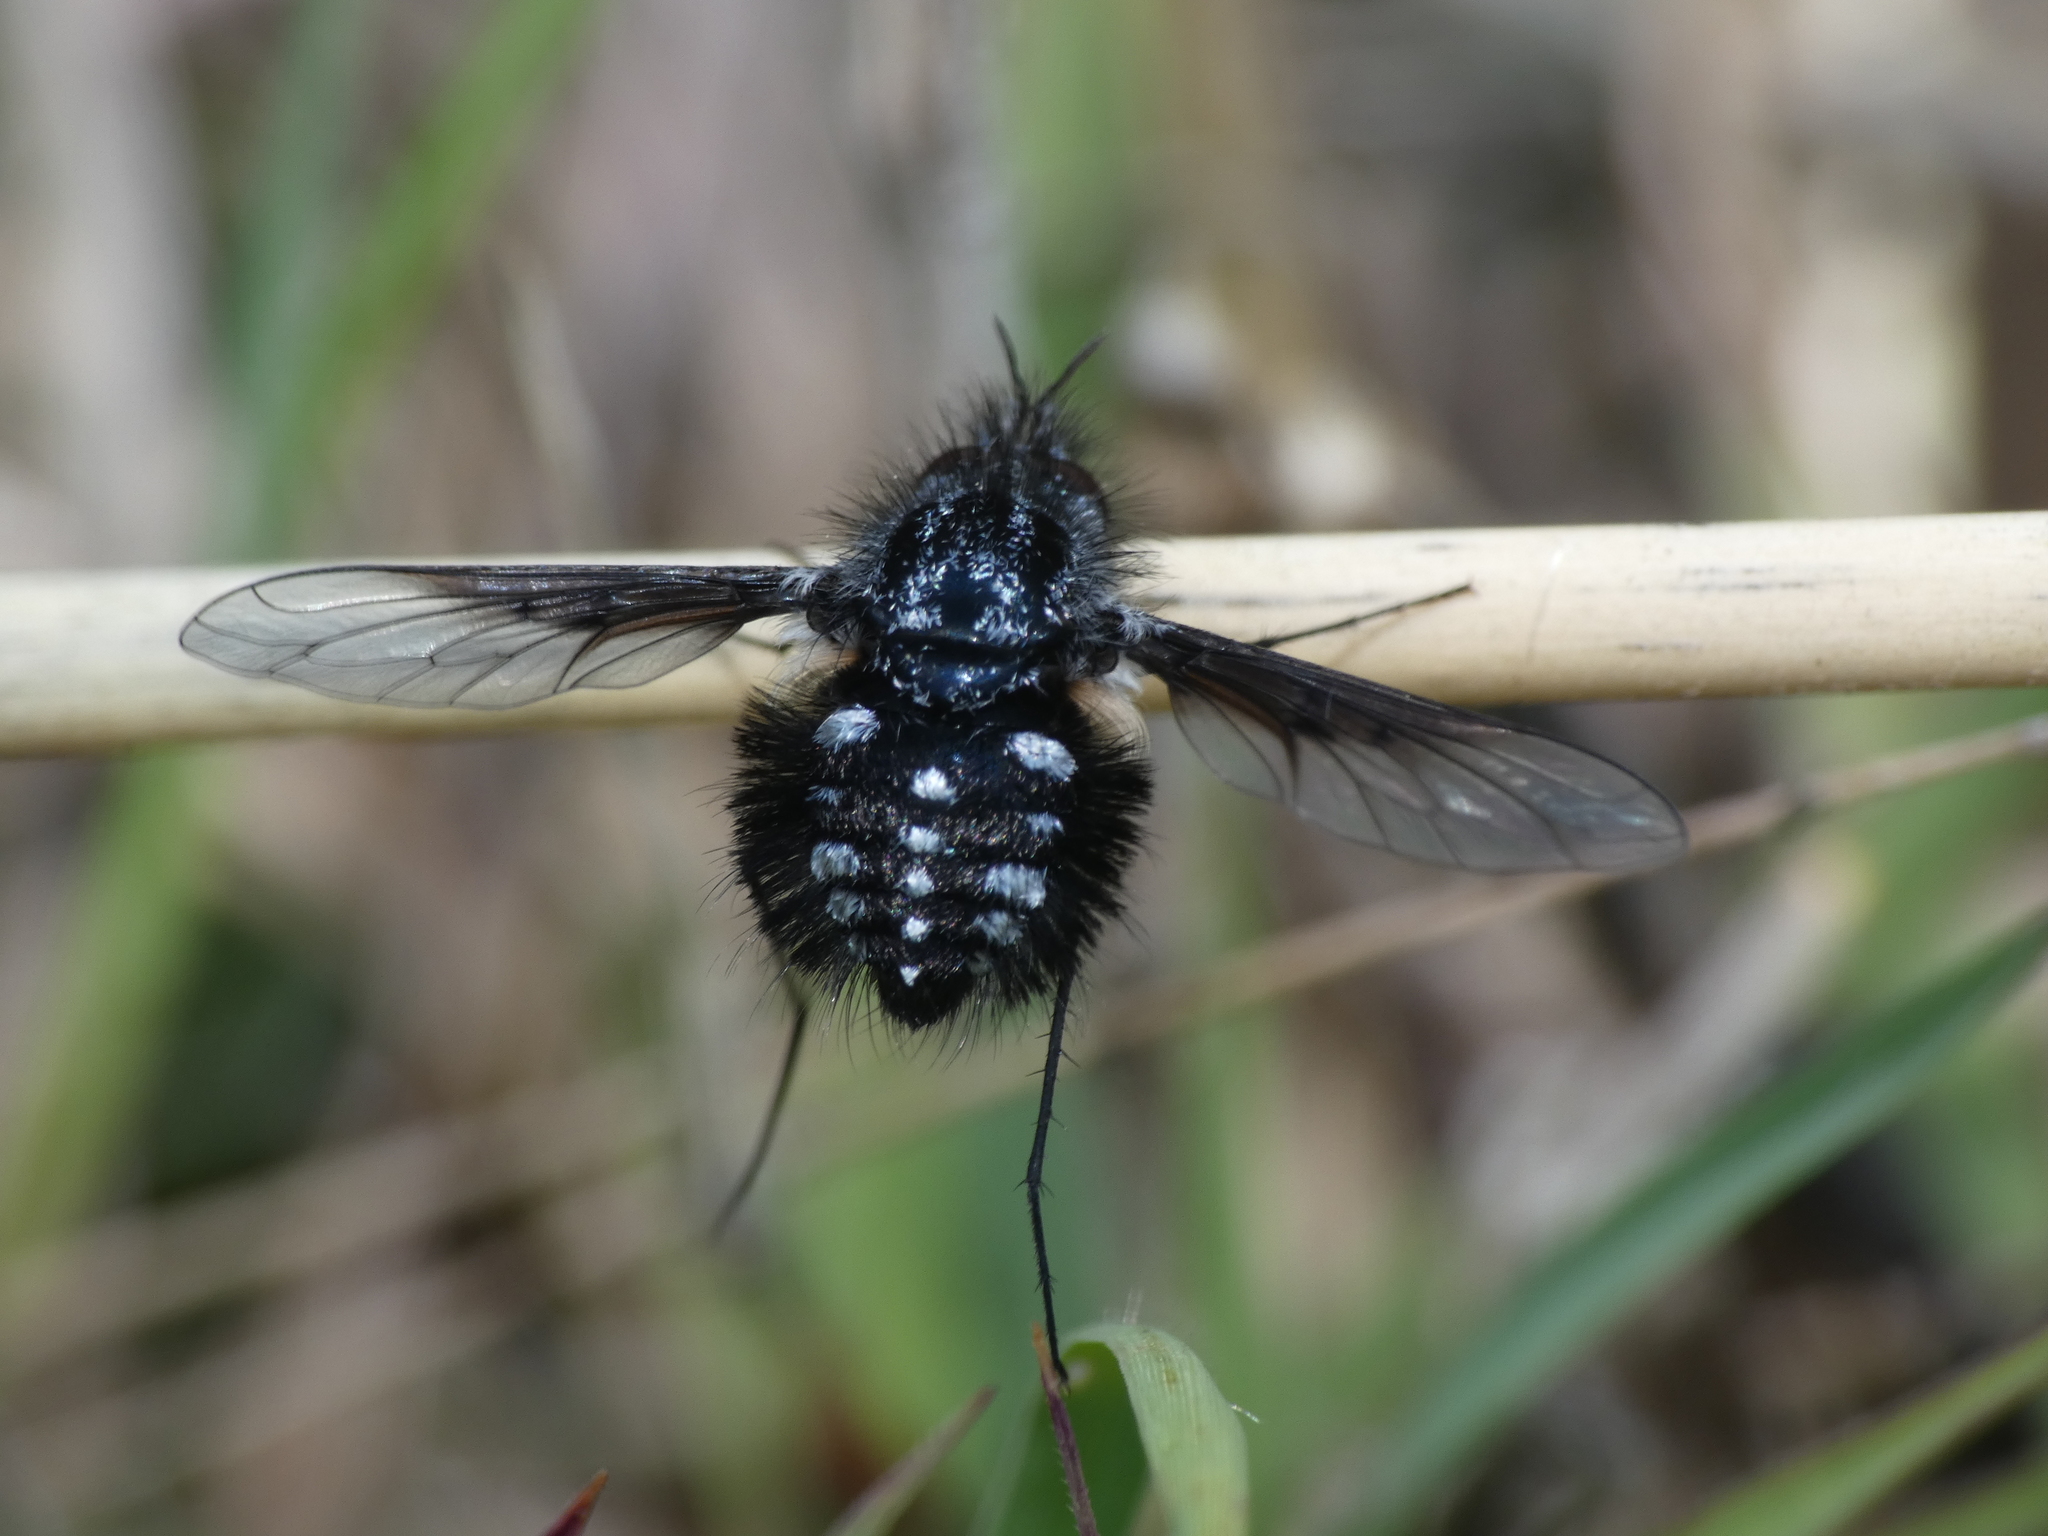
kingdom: Animalia
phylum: Arthropoda
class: Insecta
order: Diptera
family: Bombyliidae
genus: Bombylella
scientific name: Bombylella atra
